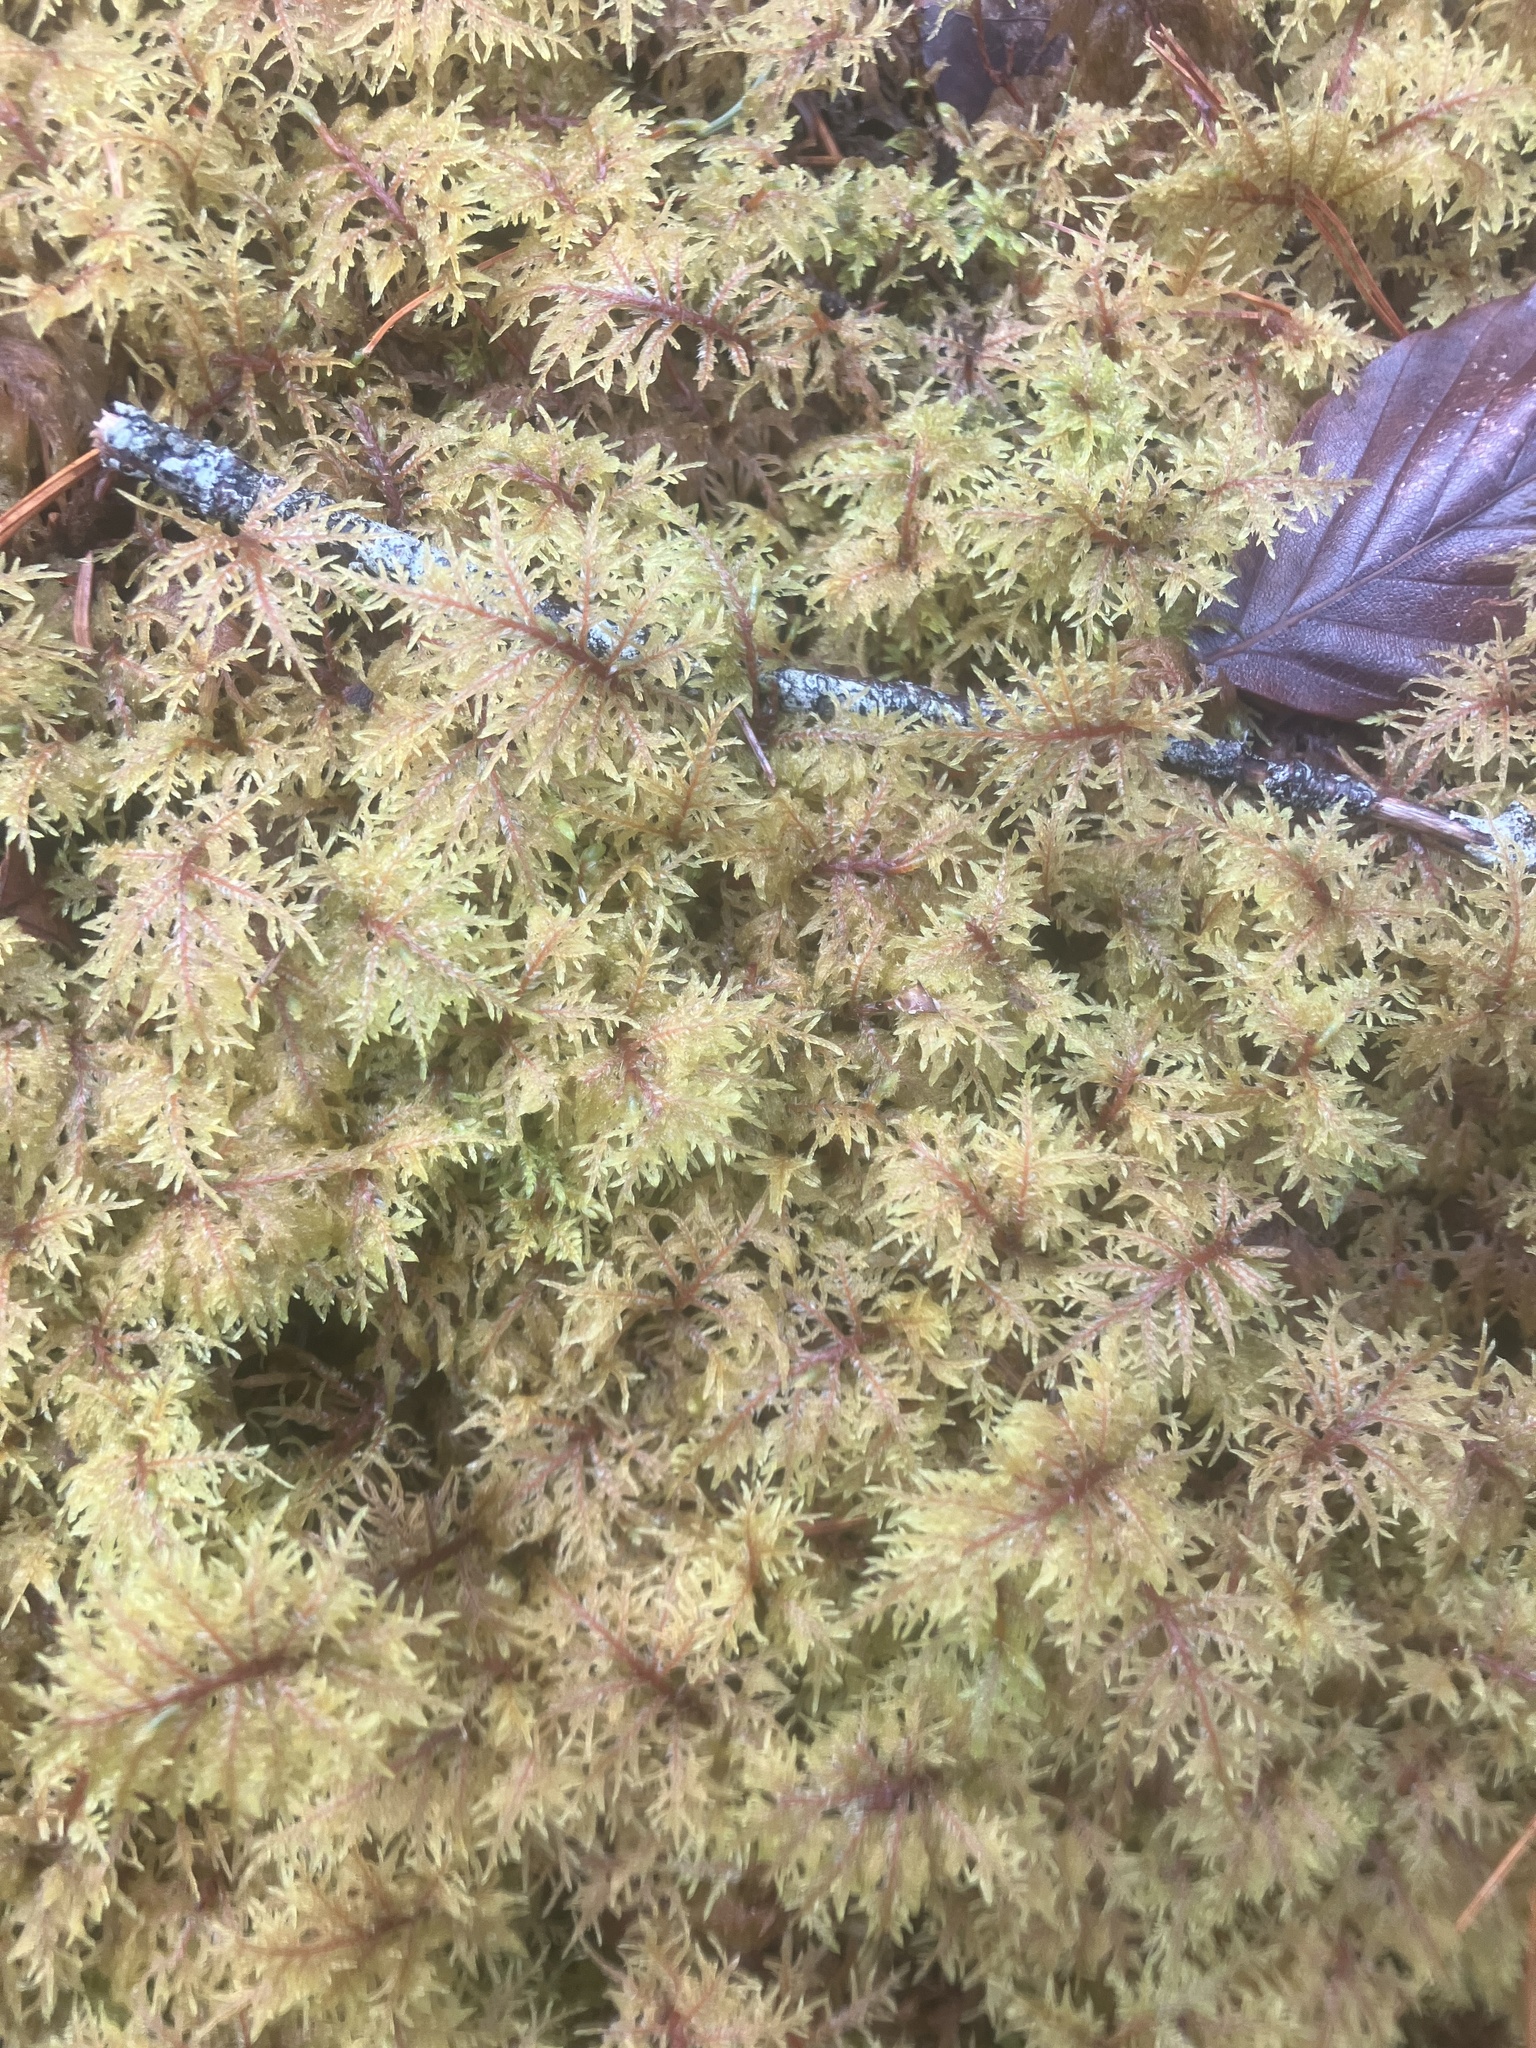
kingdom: Plantae
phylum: Bryophyta
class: Bryopsida
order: Hypnales
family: Hylocomiaceae
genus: Hylocomium
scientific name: Hylocomium splendens
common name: Stairstep moss
